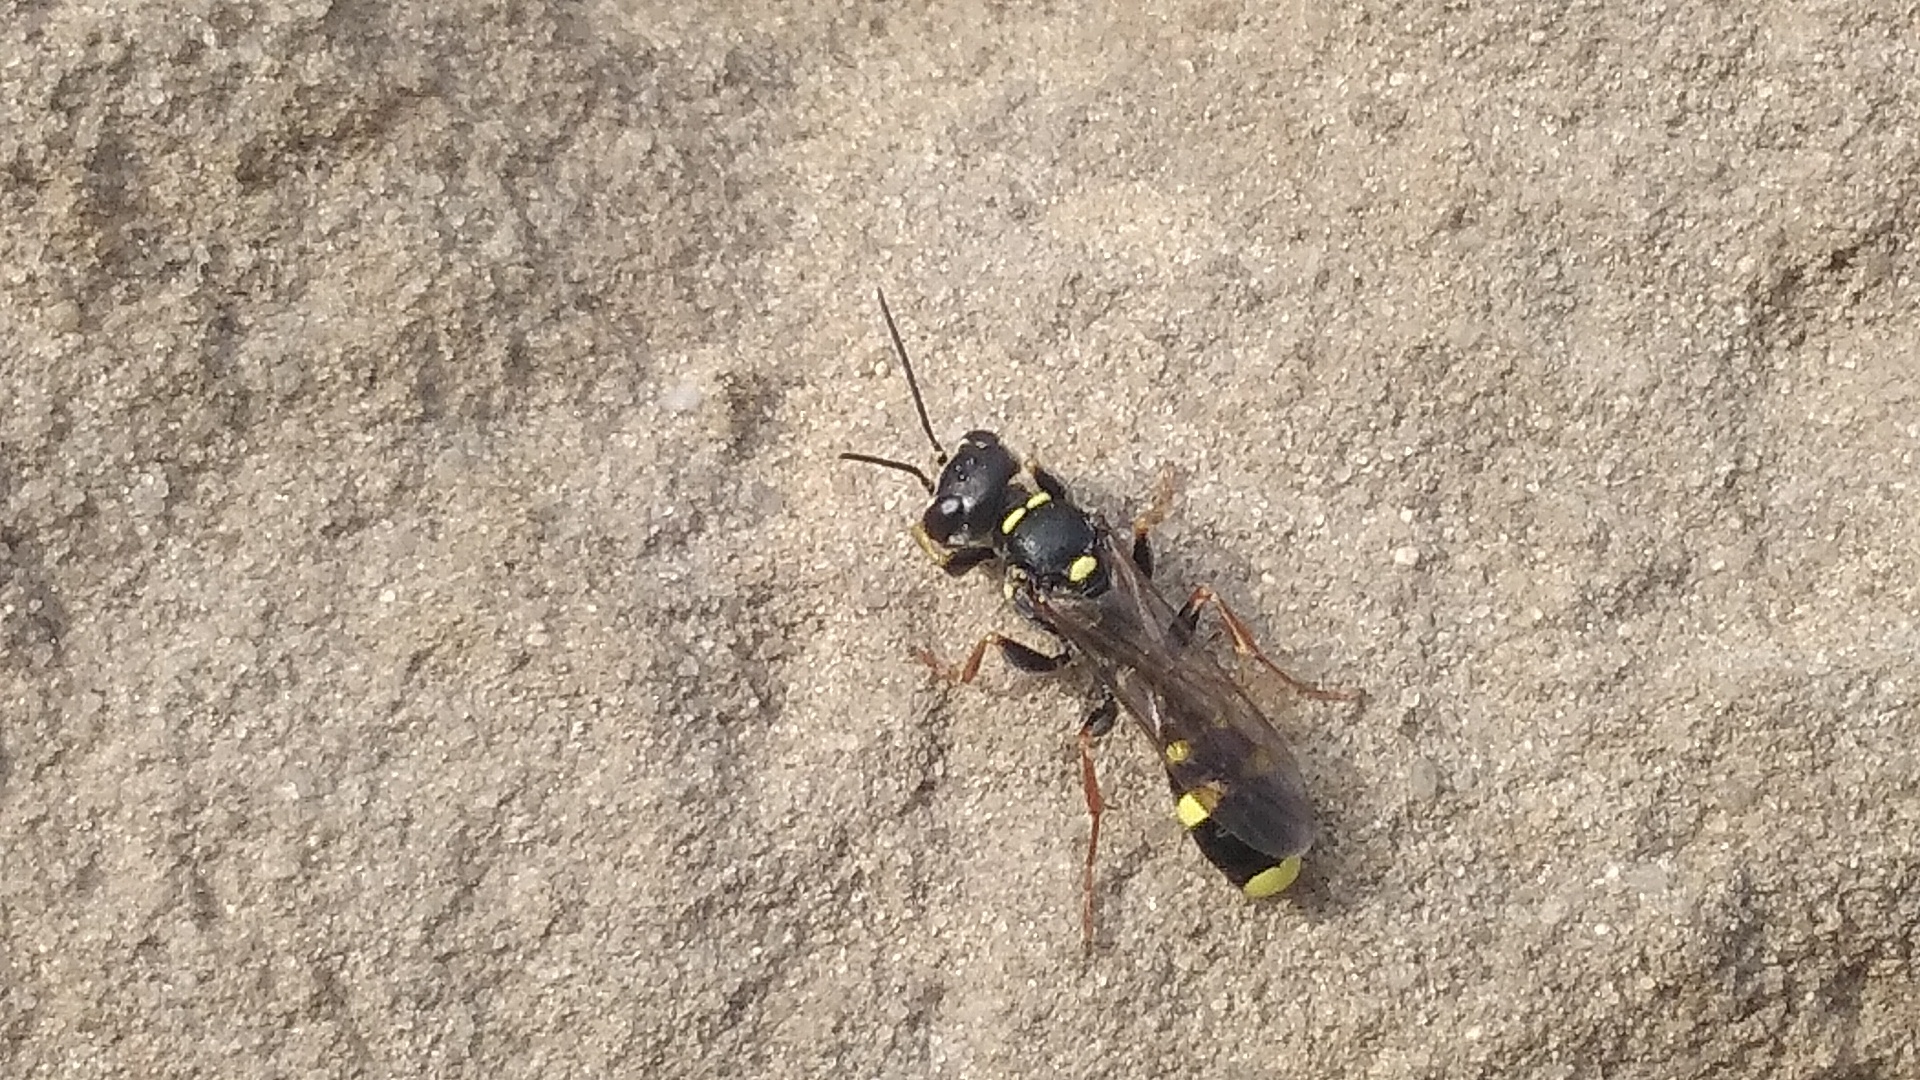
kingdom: Animalia
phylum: Arthropoda
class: Insecta
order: Hymenoptera
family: Crabronidae
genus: Mellinus
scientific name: Mellinus arvensis
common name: Field digger wasp
